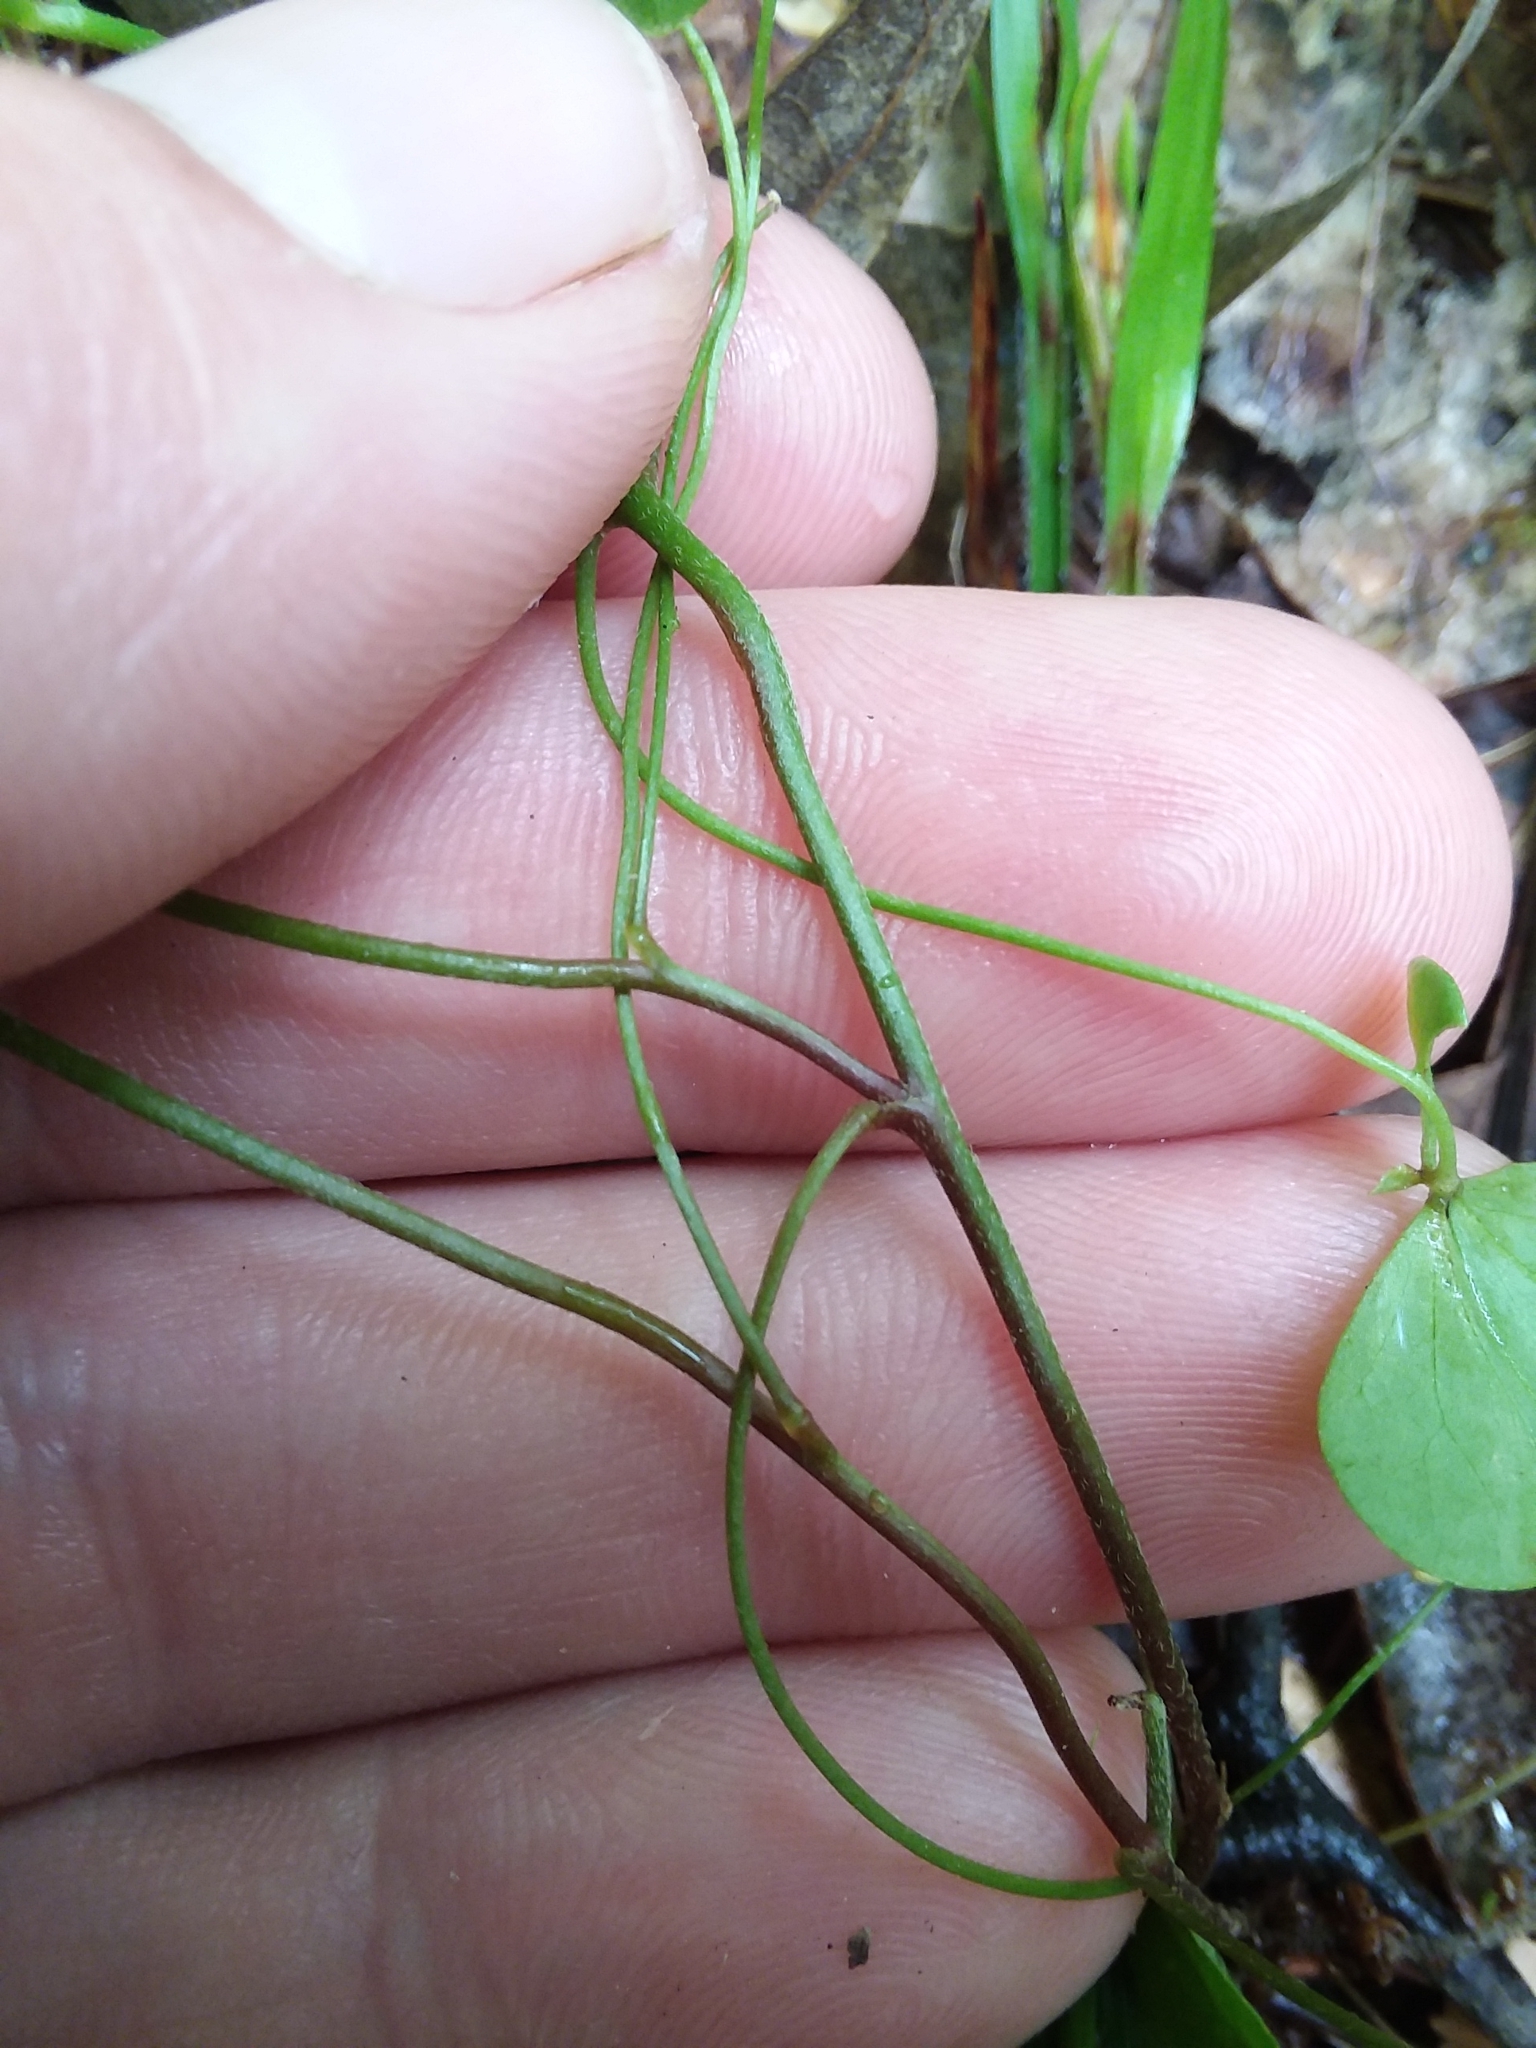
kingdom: Plantae
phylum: Tracheophyta
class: Magnoliopsida
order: Oxalidales
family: Oxalidaceae
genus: Oxalis
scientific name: Oxalis florida
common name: Flowering yellow woodsorrel
